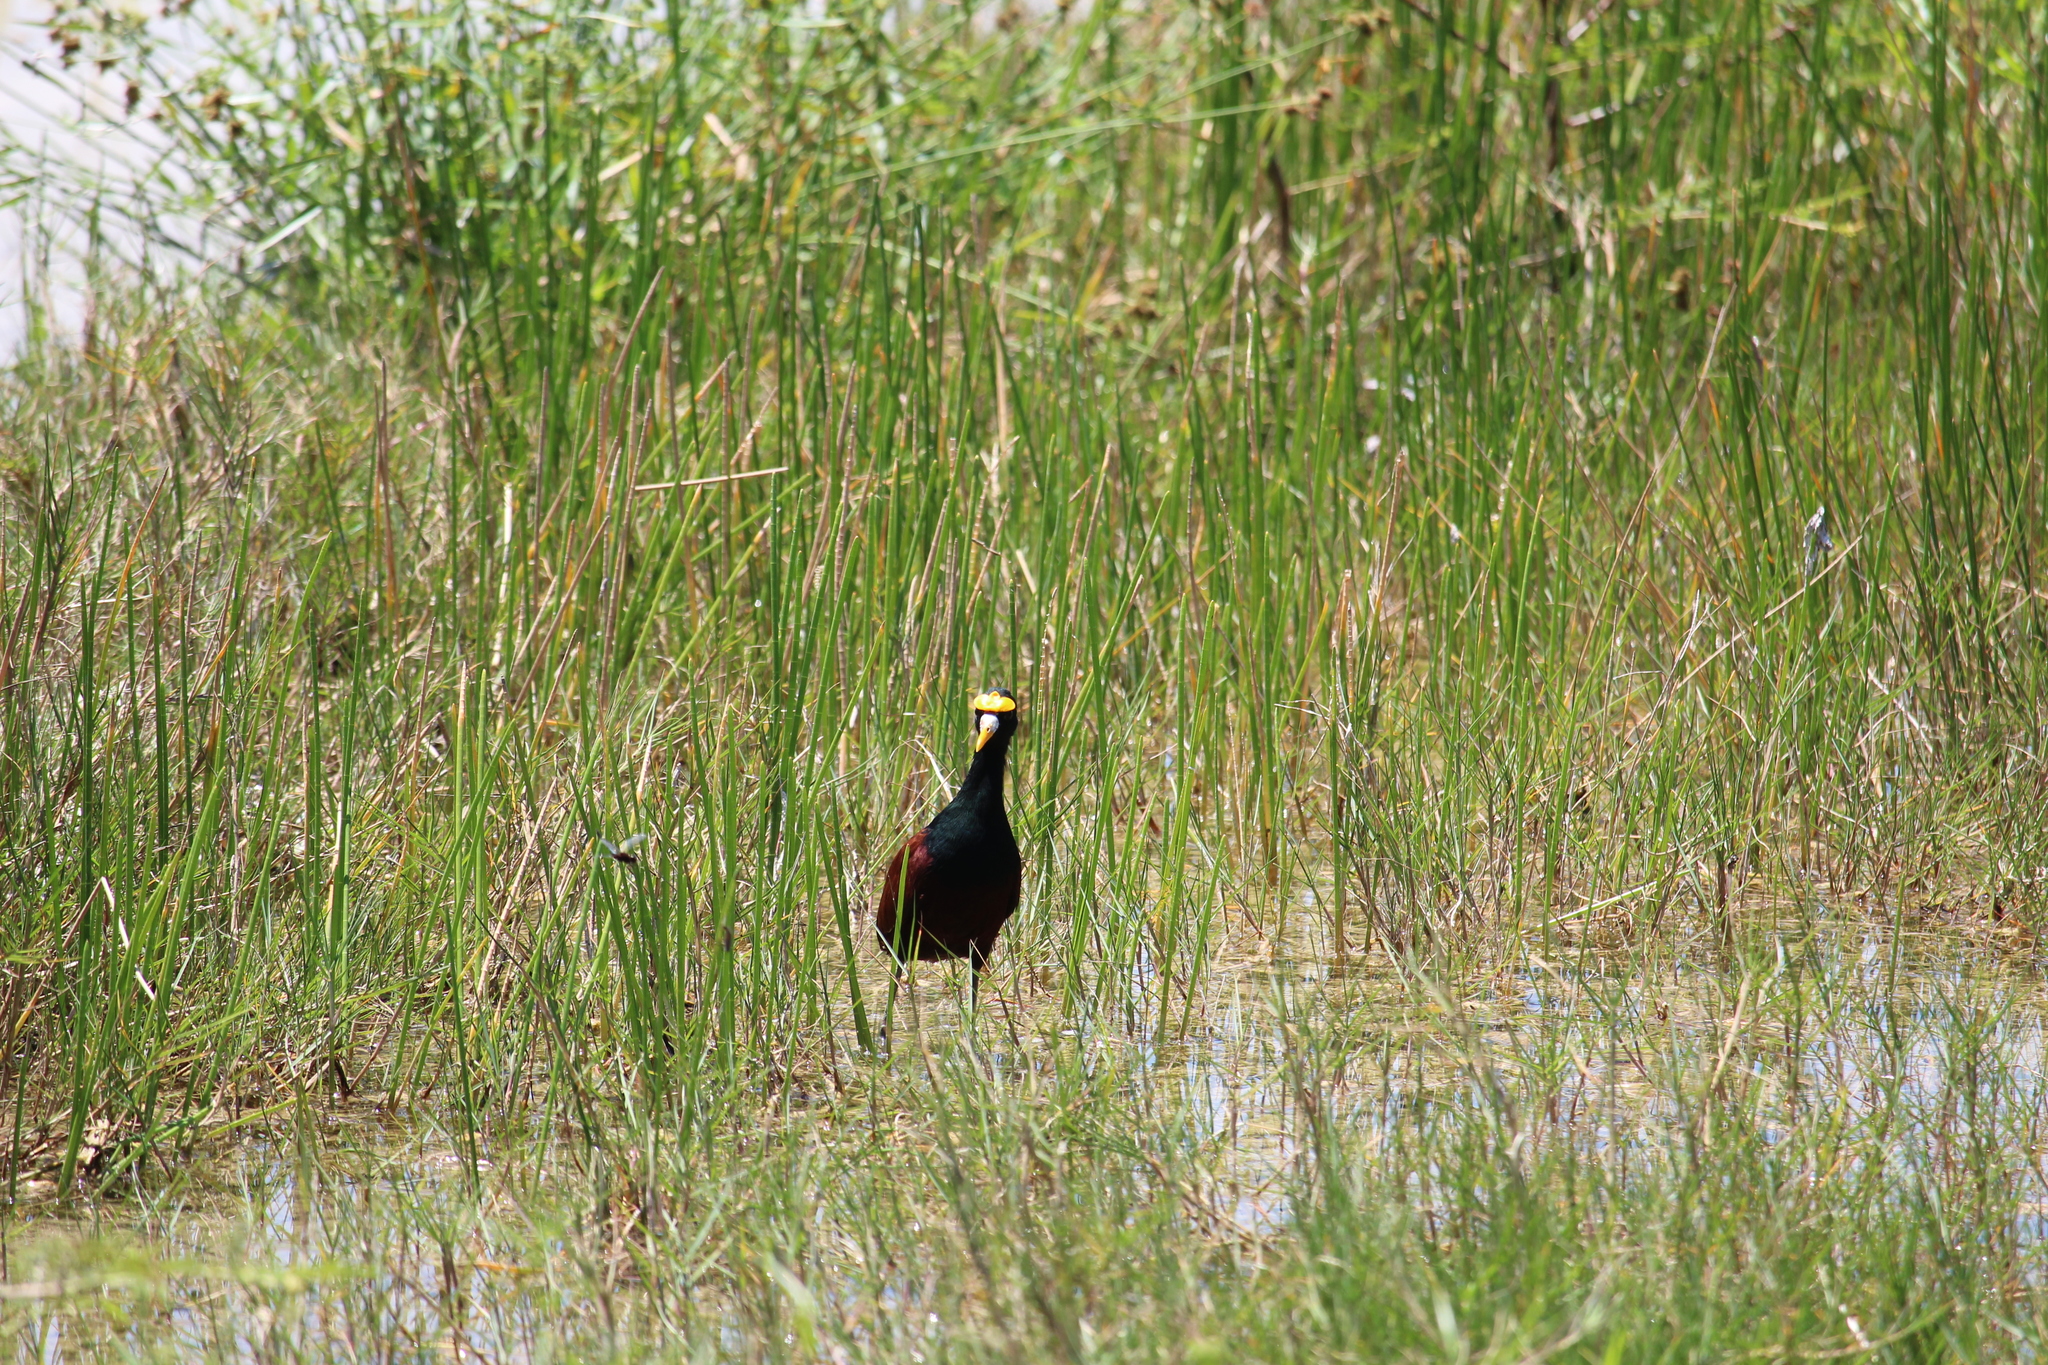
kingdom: Animalia
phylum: Chordata
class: Aves
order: Charadriiformes
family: Jacanidae
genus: Jacana
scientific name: Jacana spinosa
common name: Northern jacana
